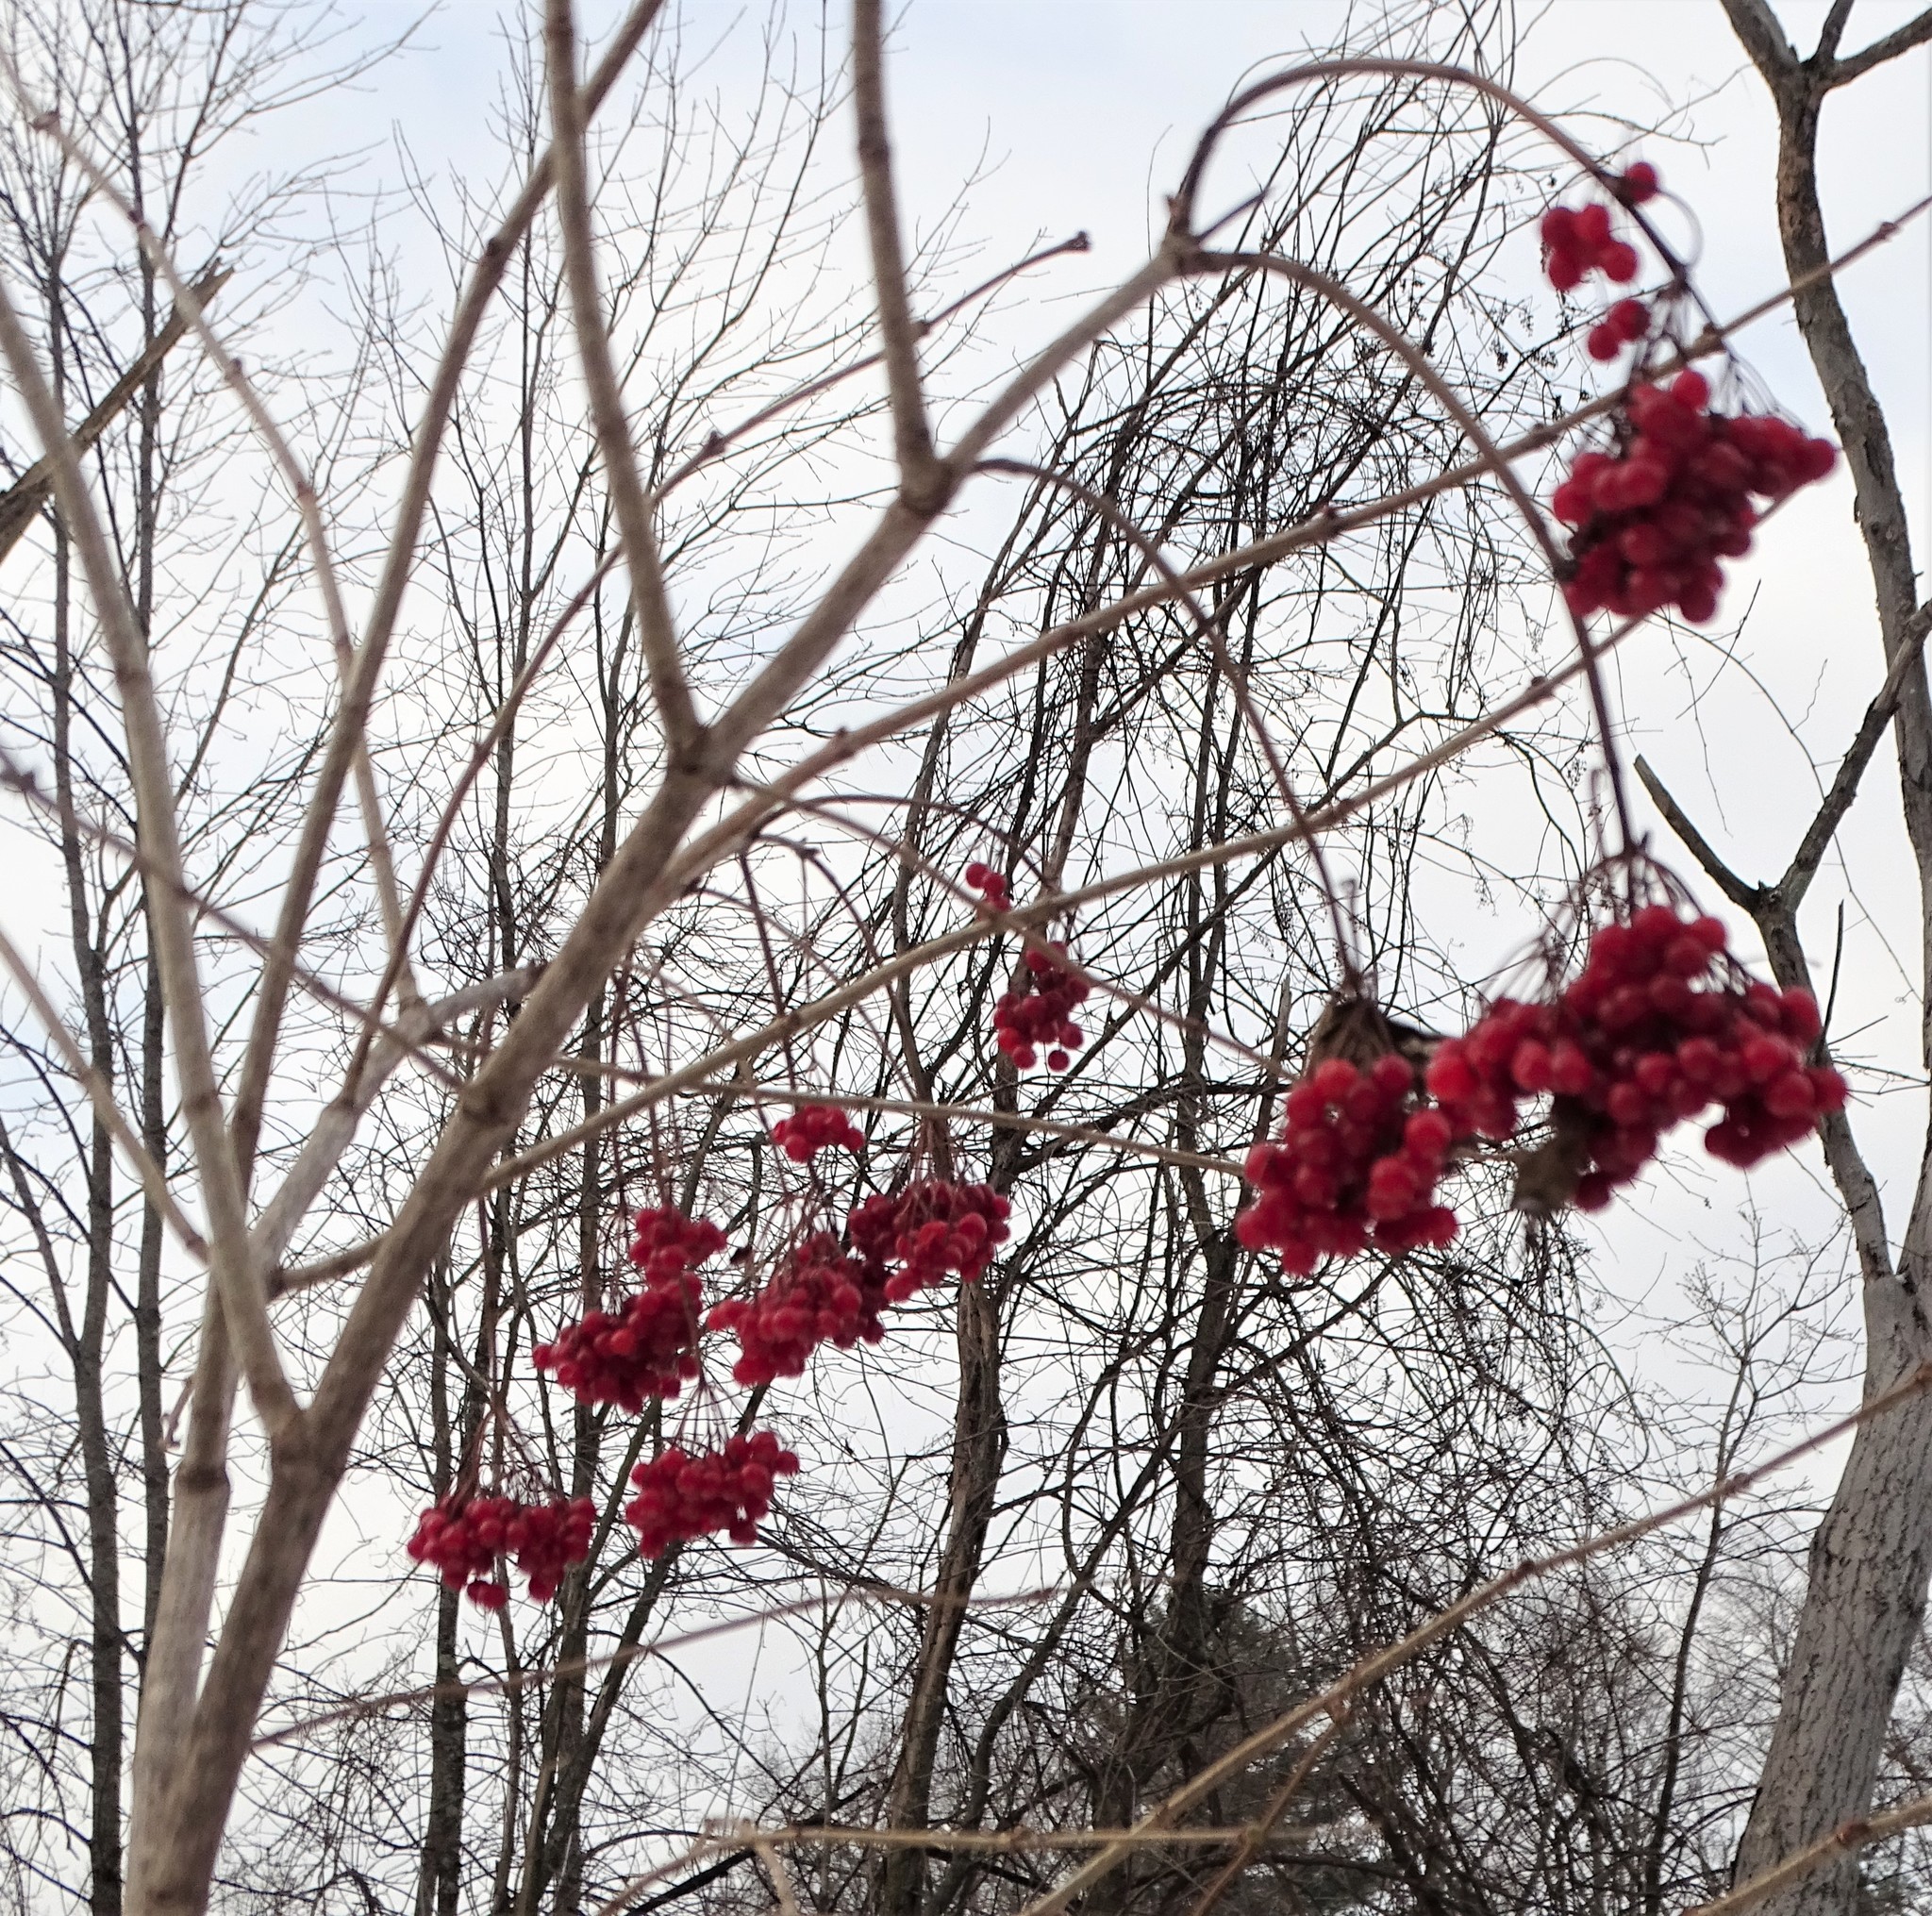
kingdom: Plantae
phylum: Tracheophyta
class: Magnoliopsida
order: Dipsacales
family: Viburnaceae
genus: Viburnum
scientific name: Viburnum opulus
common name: Guelder-rose
